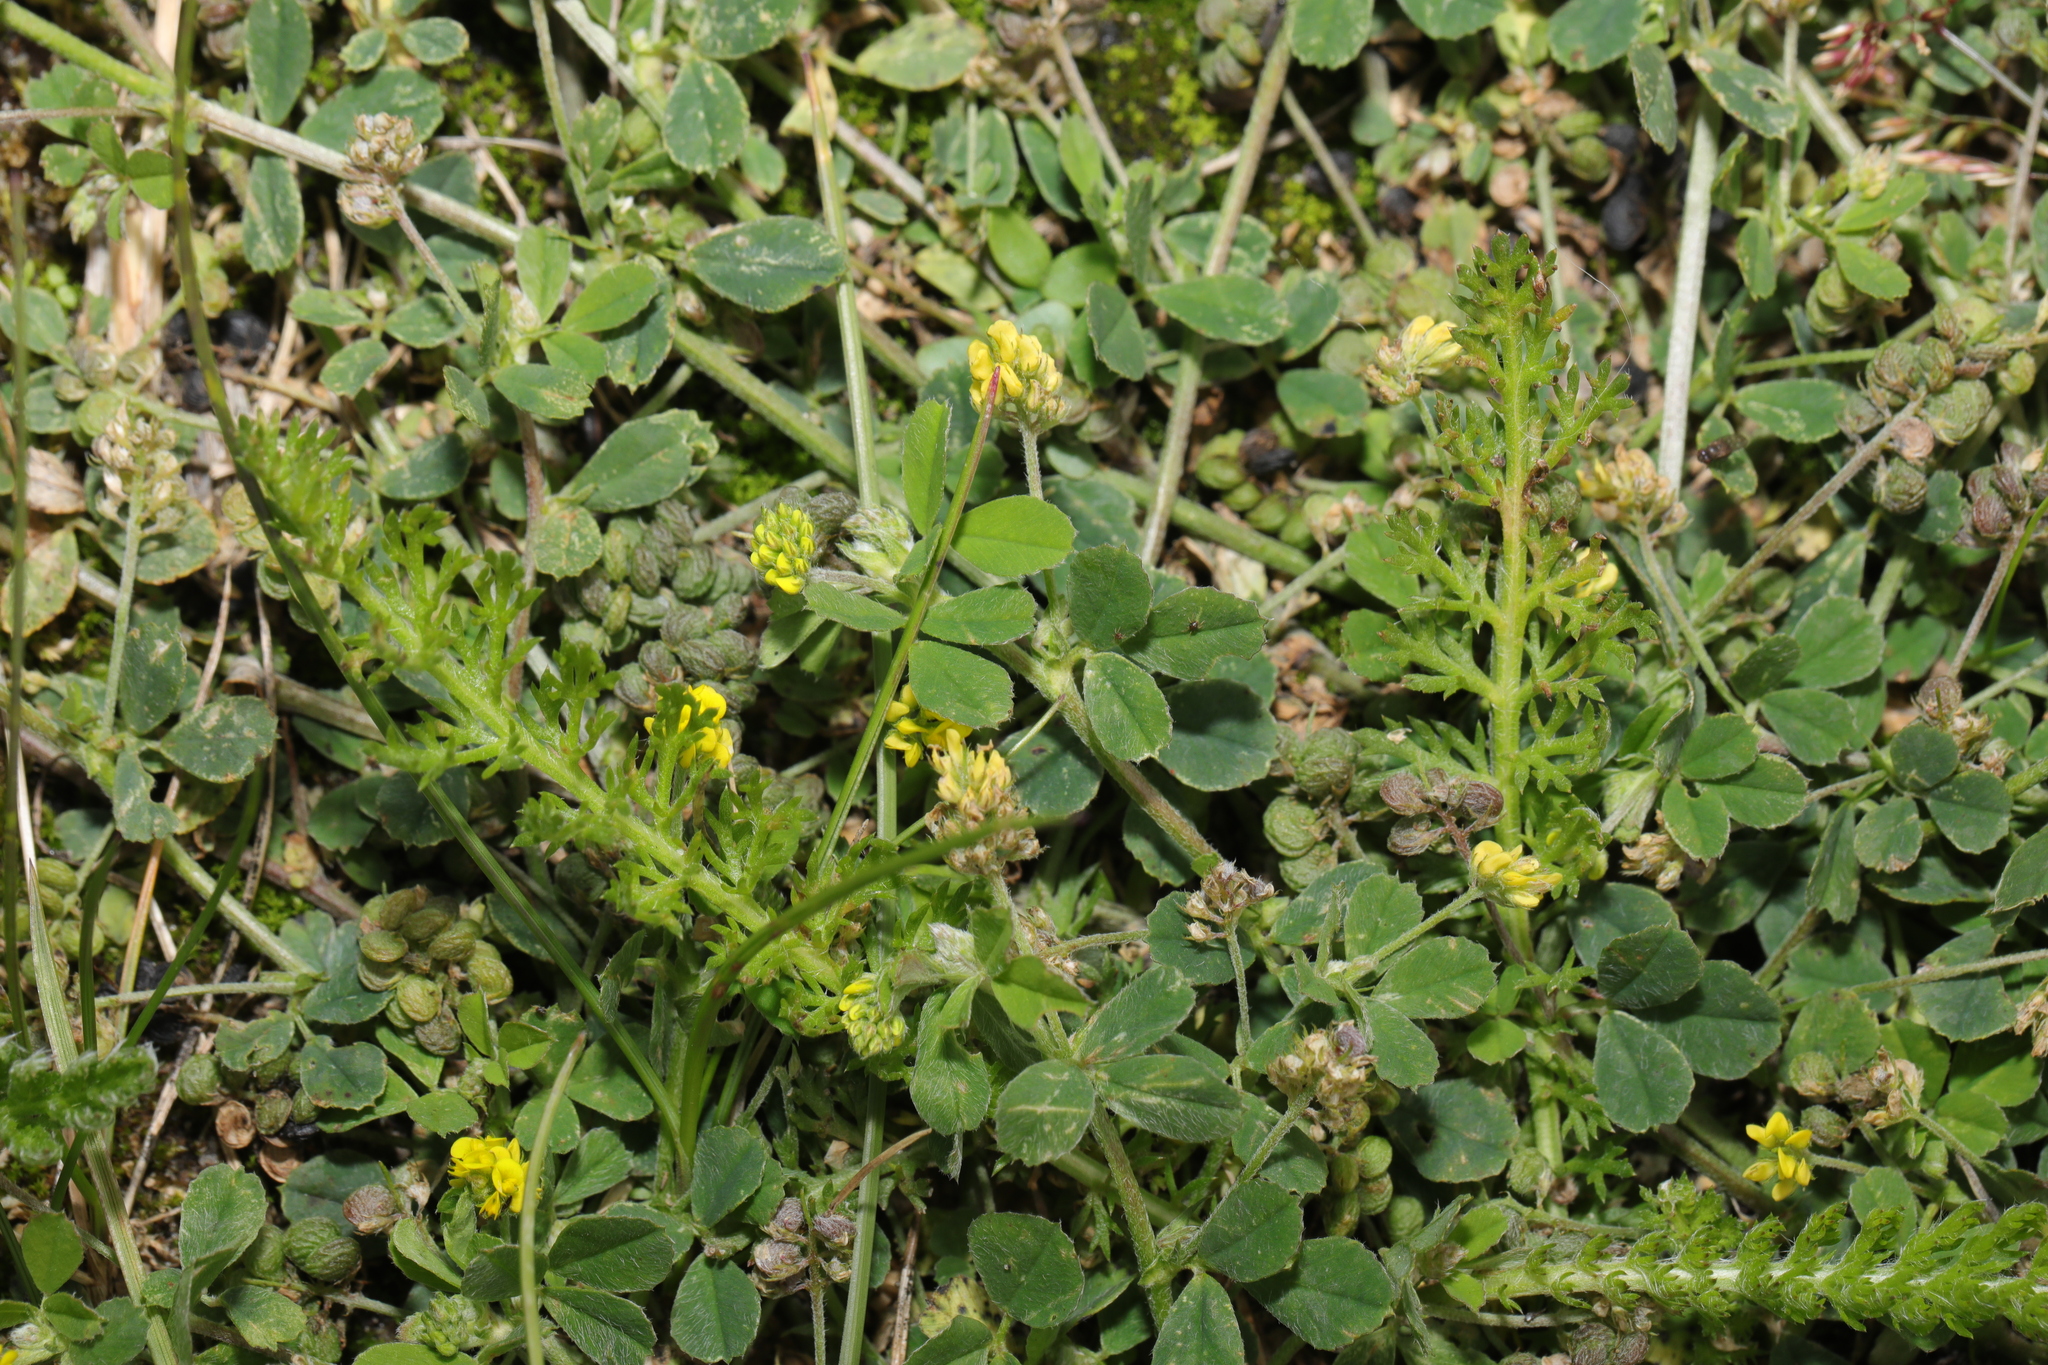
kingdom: Plantae
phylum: Tracheophyta
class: Magnoliopsida
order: Fabales
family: Fabaceae
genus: Medicago
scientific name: Medicago lupulina
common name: Black medick
